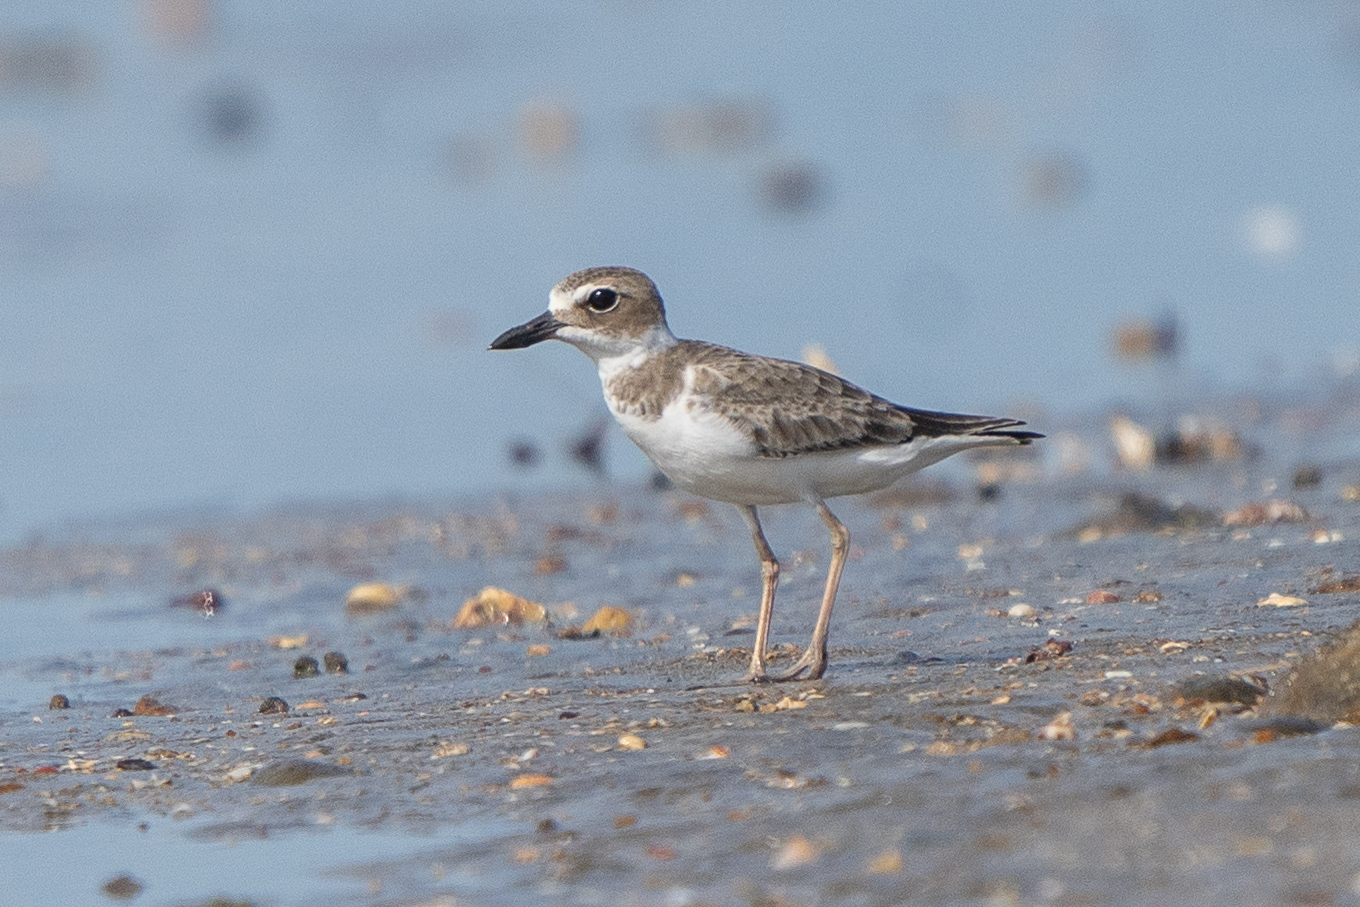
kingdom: Animalia
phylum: Chordata
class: Aves
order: Charadriiformes
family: Charadriidae
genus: Anarhynchus
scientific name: Anarhynchus
